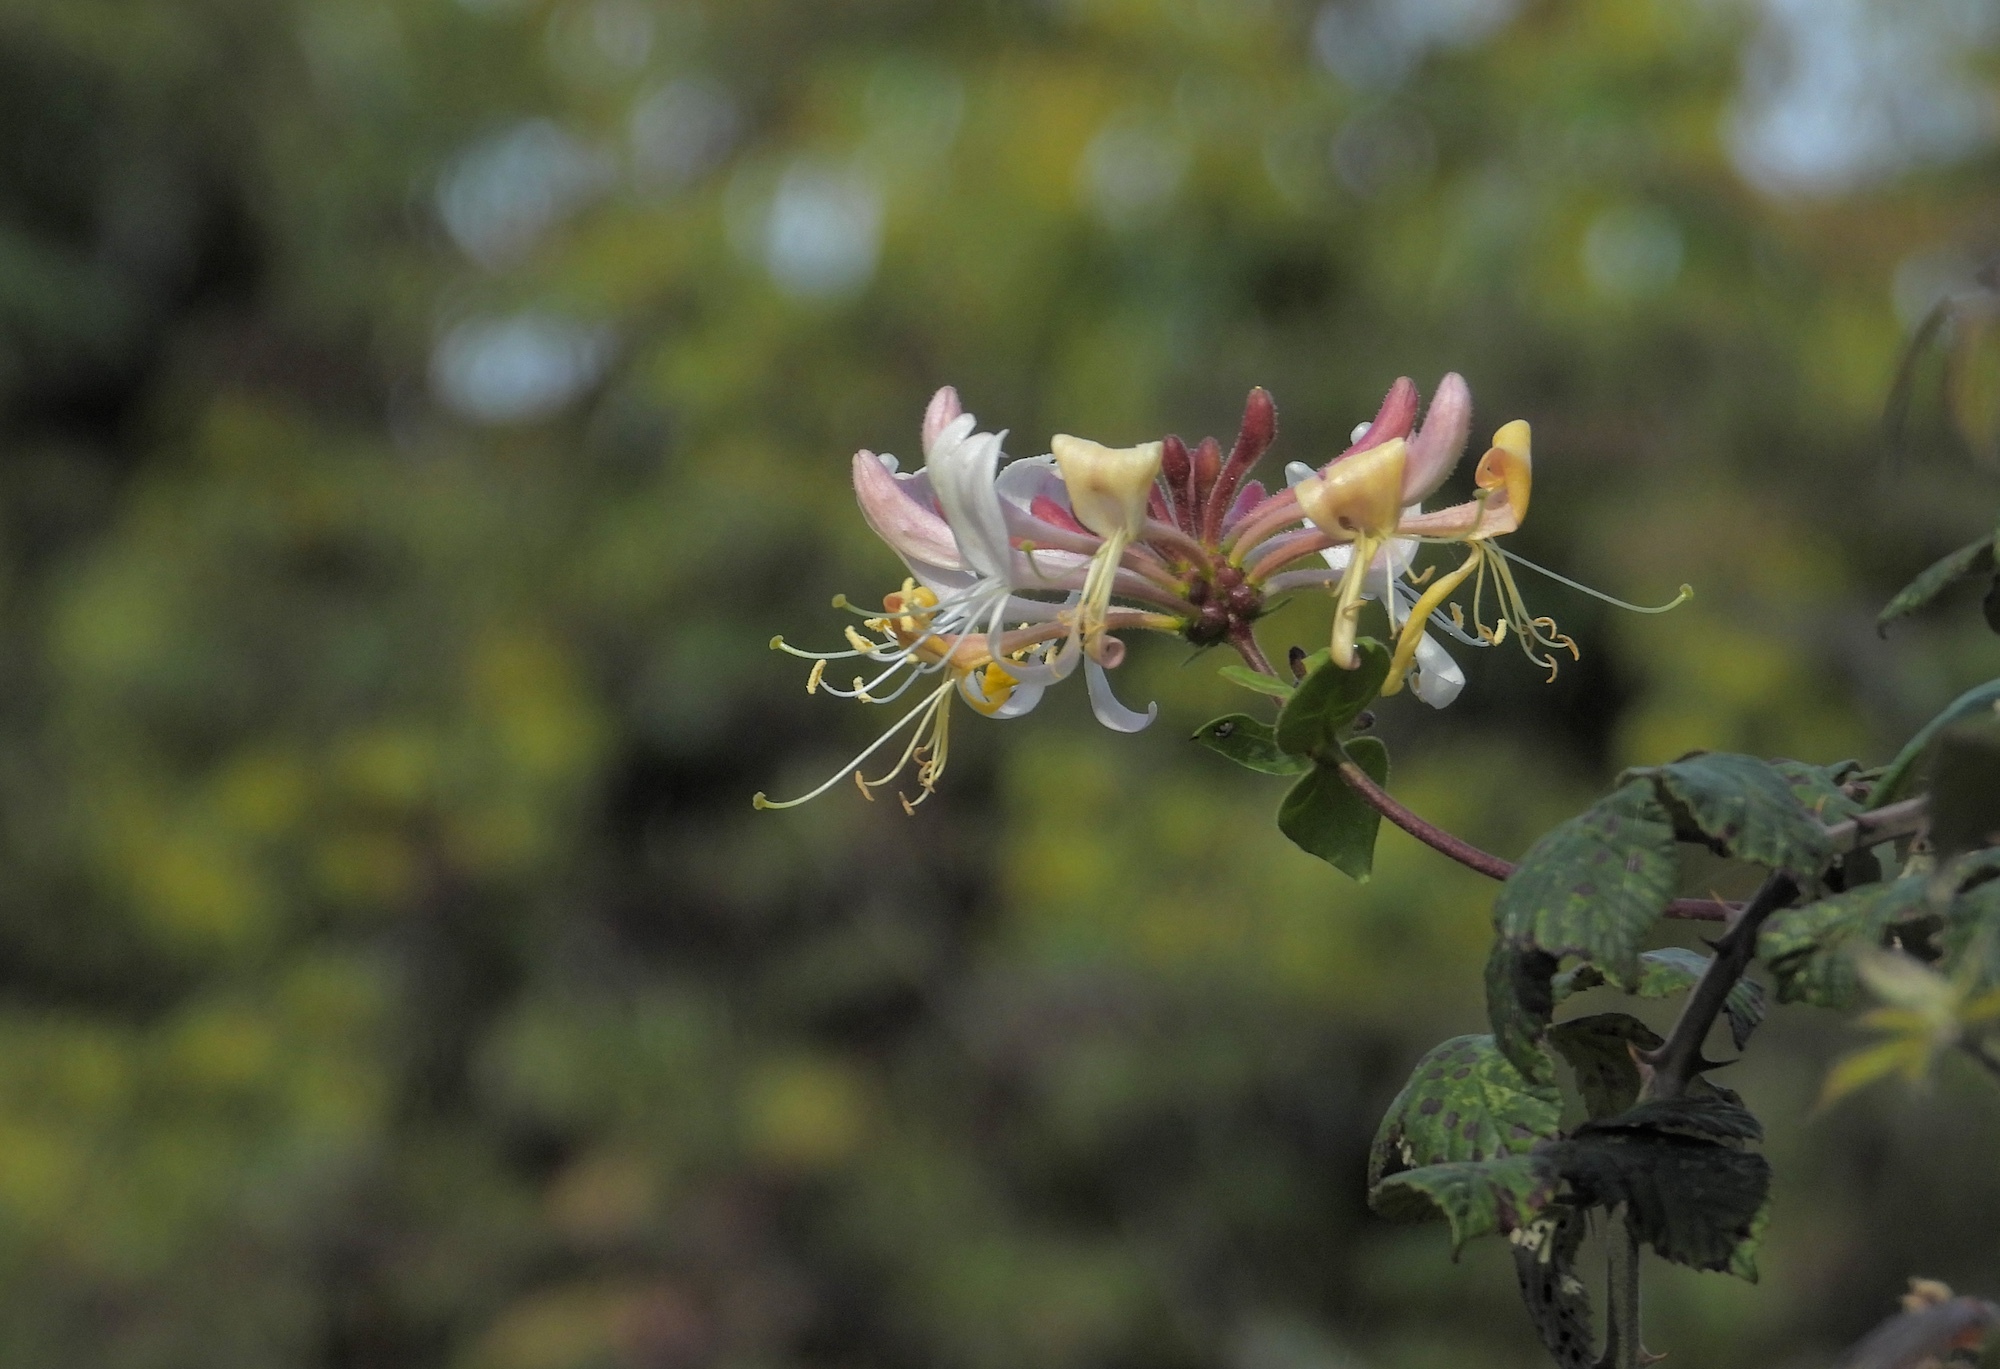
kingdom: Plantae
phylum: Tracheophyta
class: Magnoliopsida
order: Dipsacales
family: Caprifoliaceae
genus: Lonicera
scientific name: Lonicera periclymenum
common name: European honeysuckle
